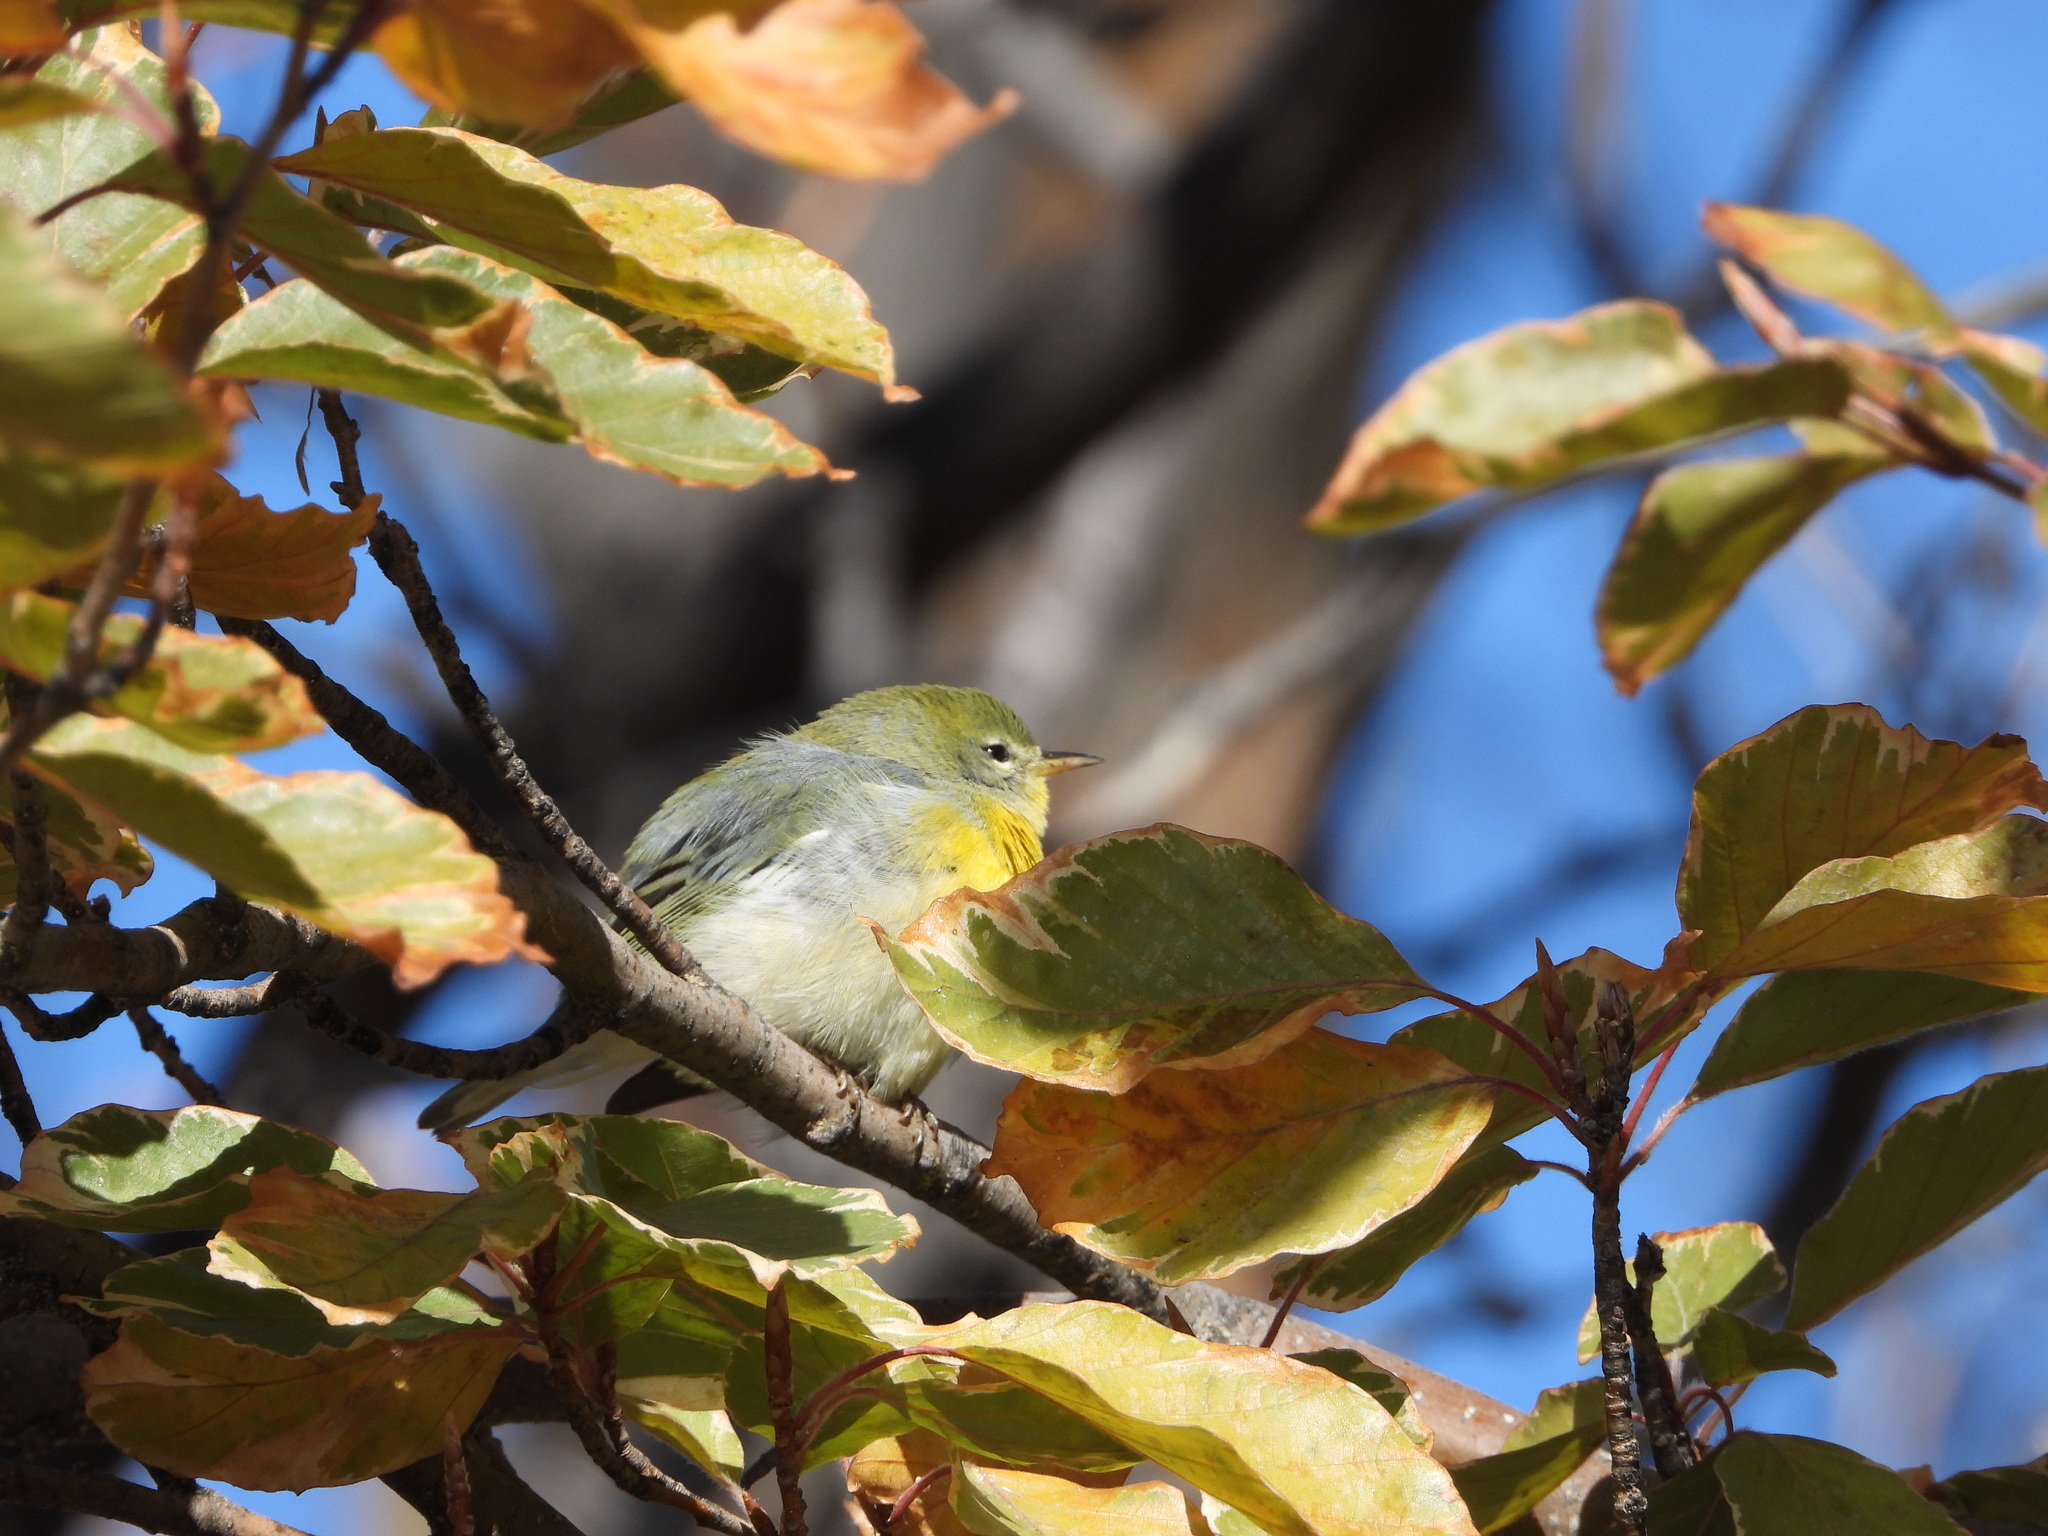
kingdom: Animalia
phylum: Chordata
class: Aves
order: Passeriformes
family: Parulidae
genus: Setophaga
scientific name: Setophaga americana
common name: Northern parula
